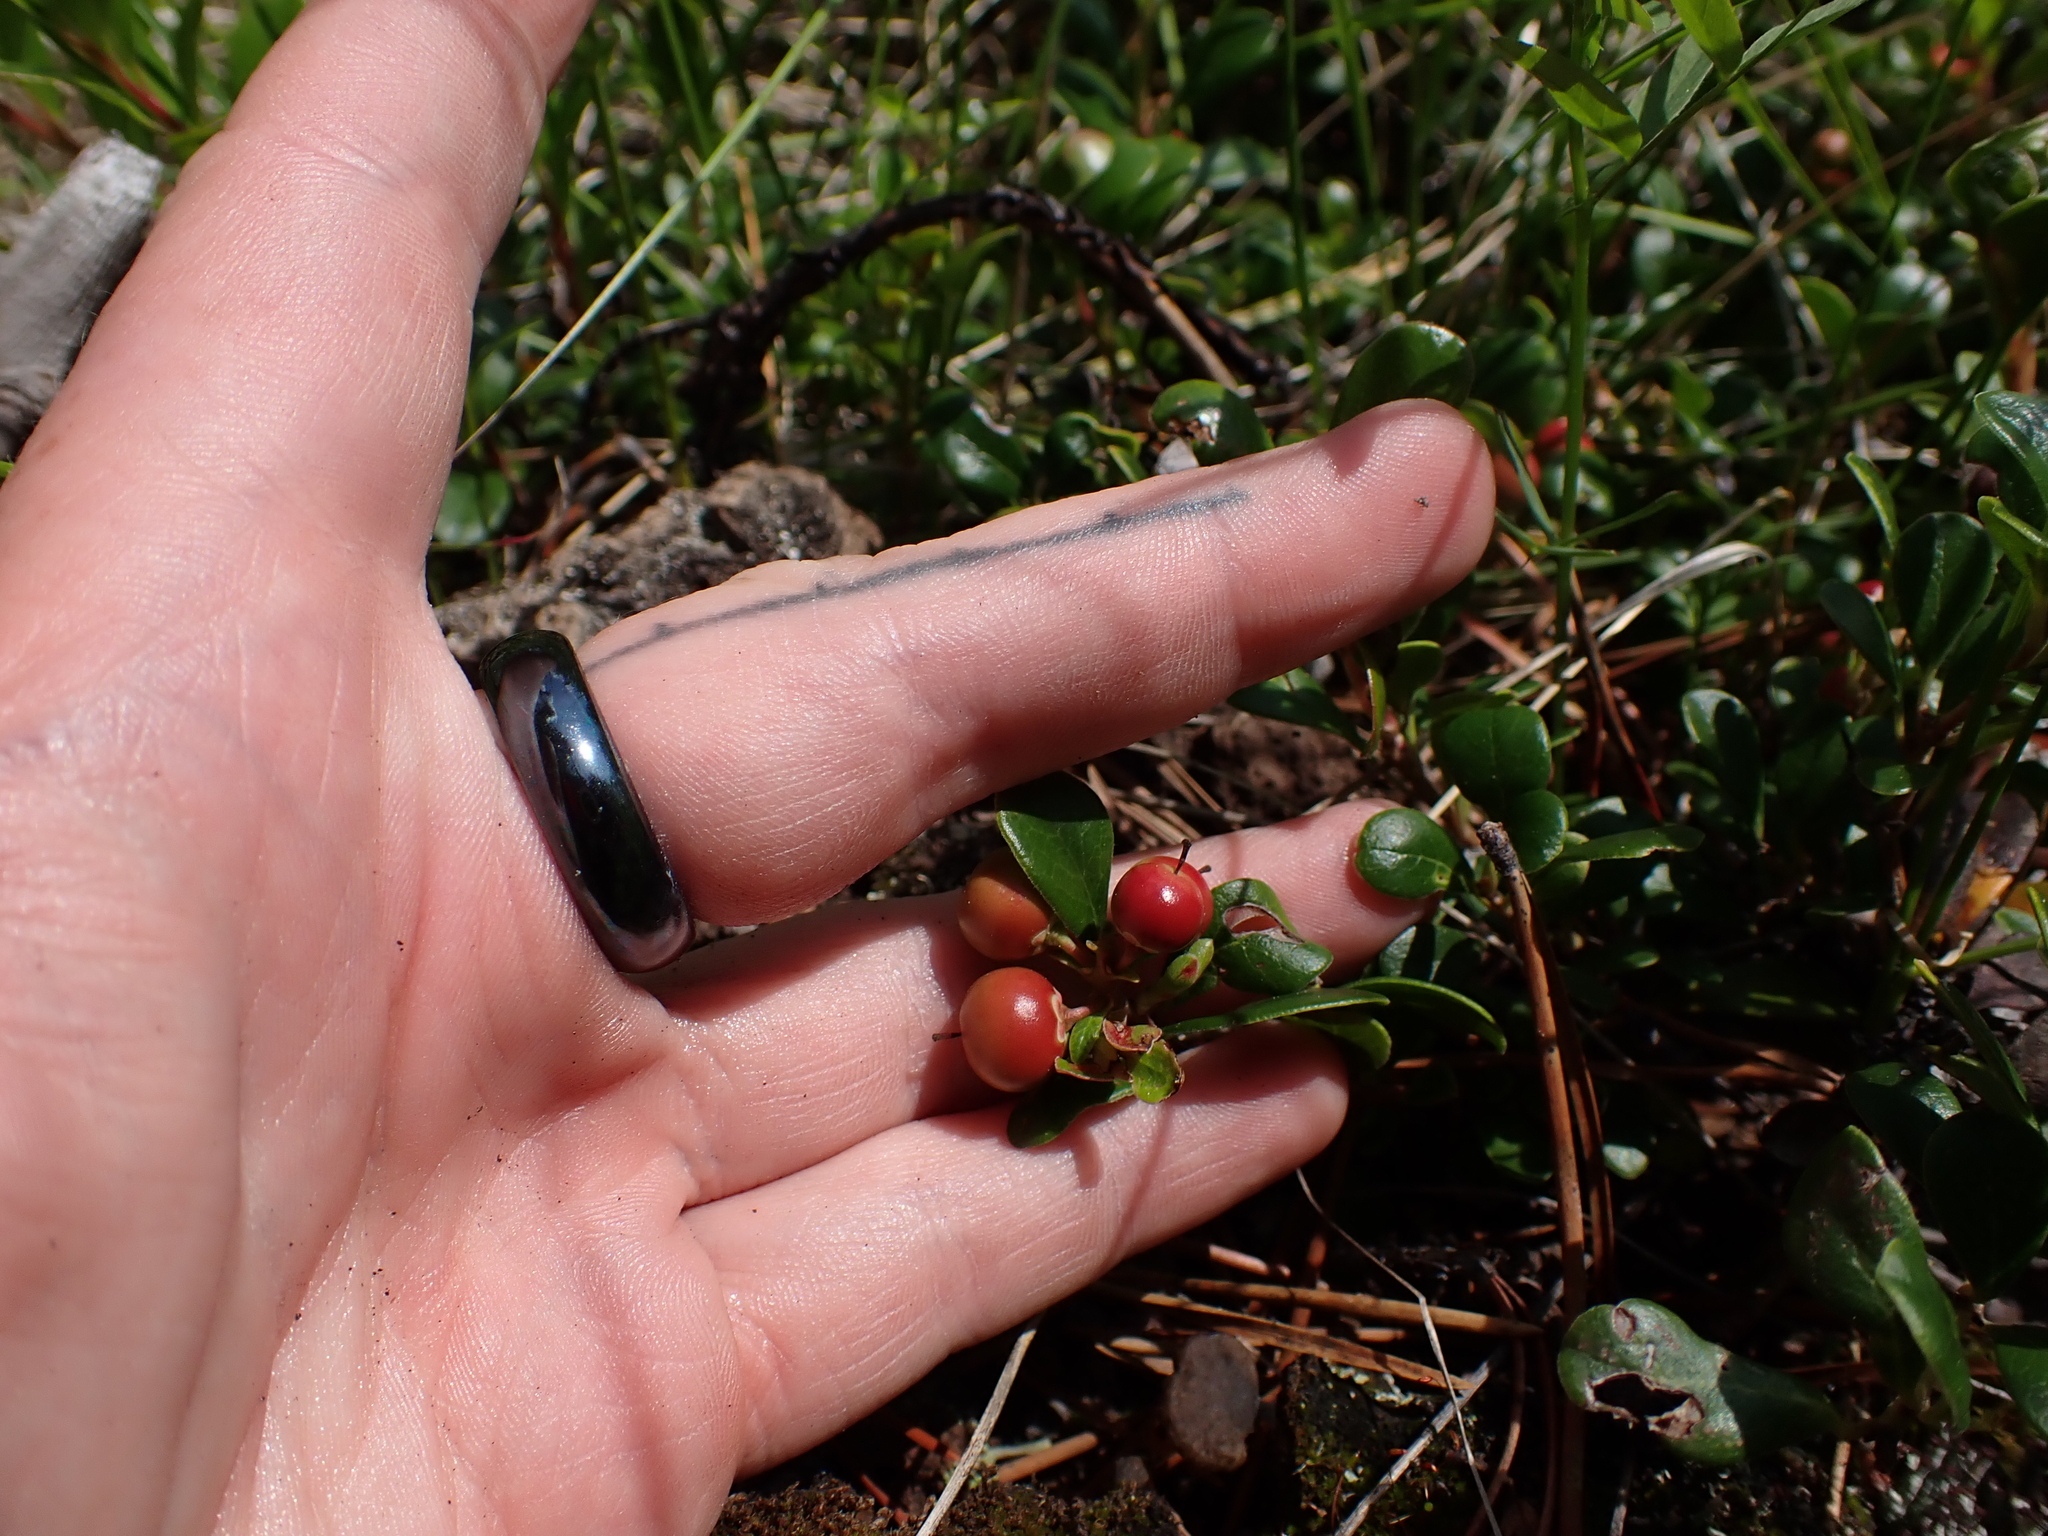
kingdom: Plantae
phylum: Tracheophyta
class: Magnoliopsida
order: Ericales
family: Ericaceae
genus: Arctostaphylos
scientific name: Arctostaphylos uva-ursi
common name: Bearberry
